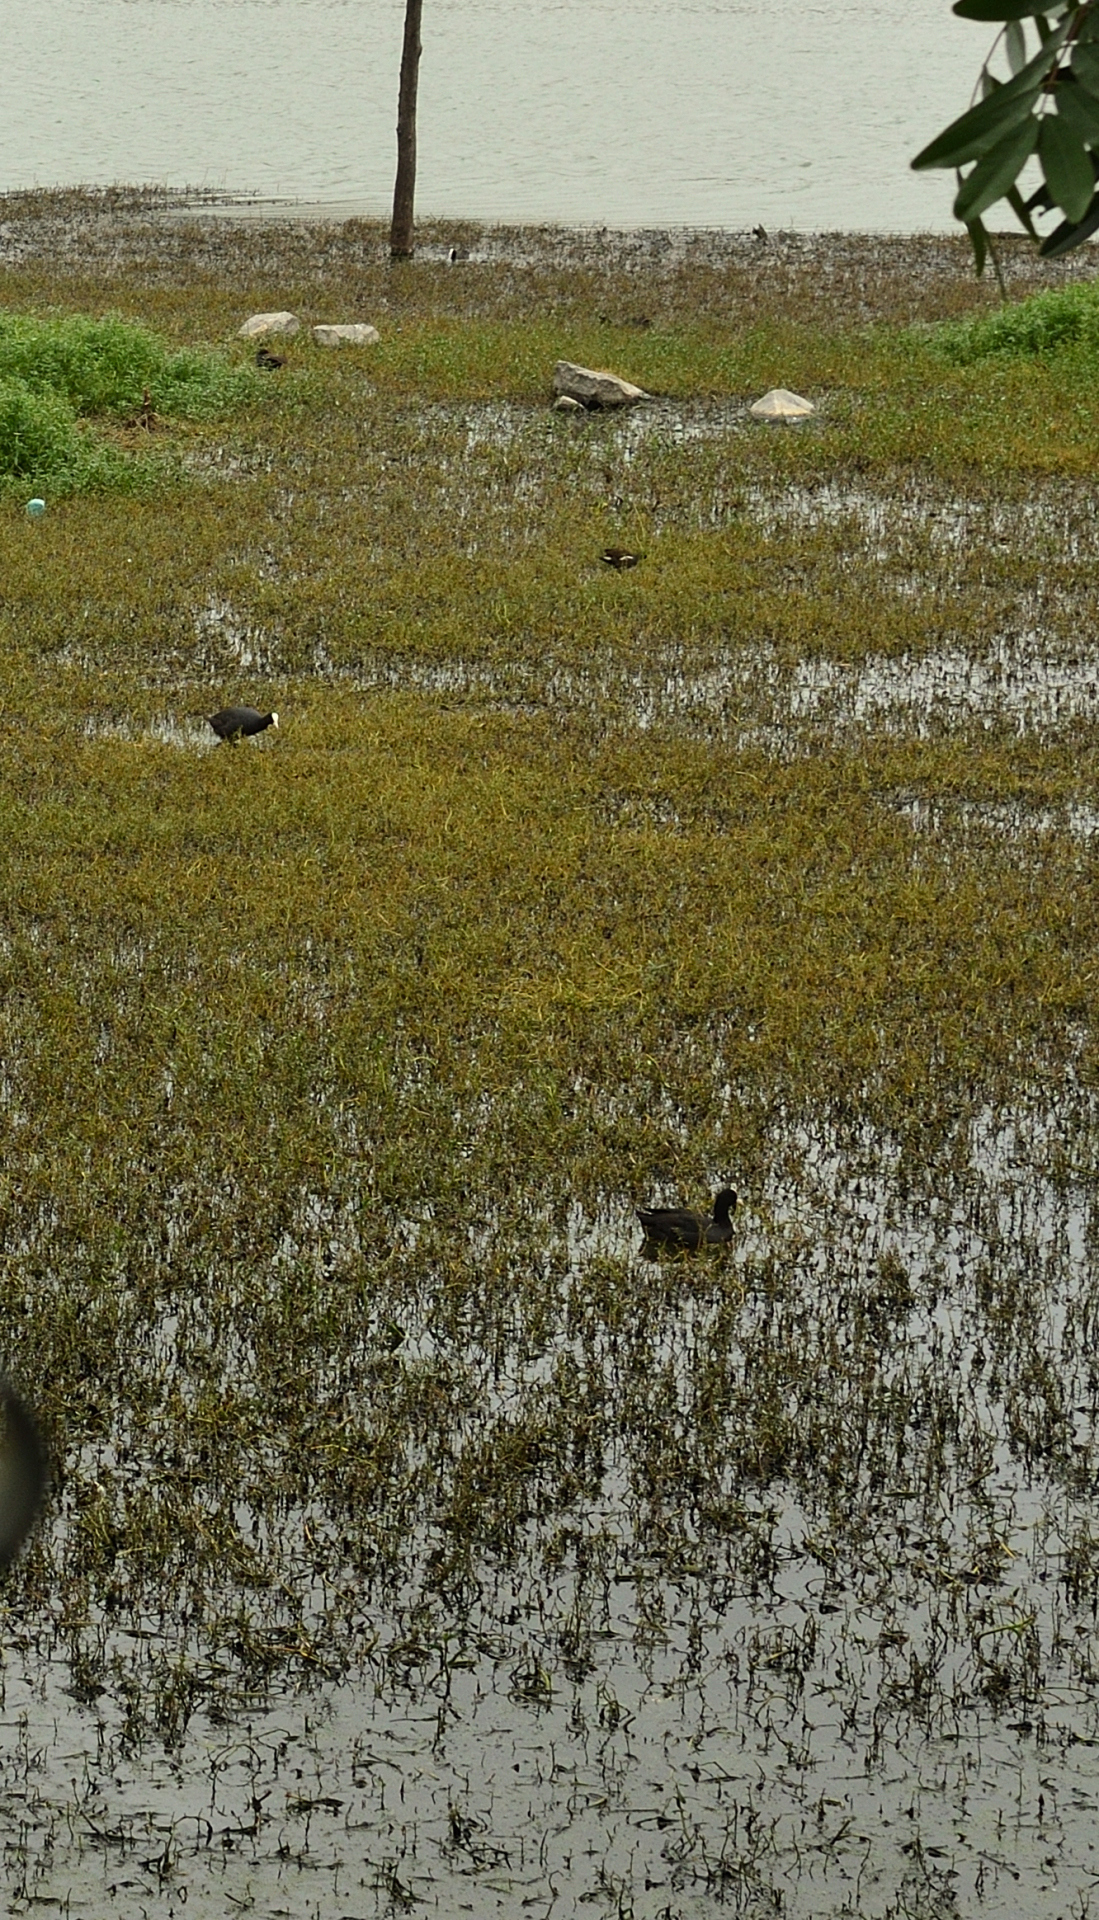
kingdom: Animalia
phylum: Chordata
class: Aves
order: Gruiformes
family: Rallidae
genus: Fulica
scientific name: Fulica atra
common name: Eurasian coot
